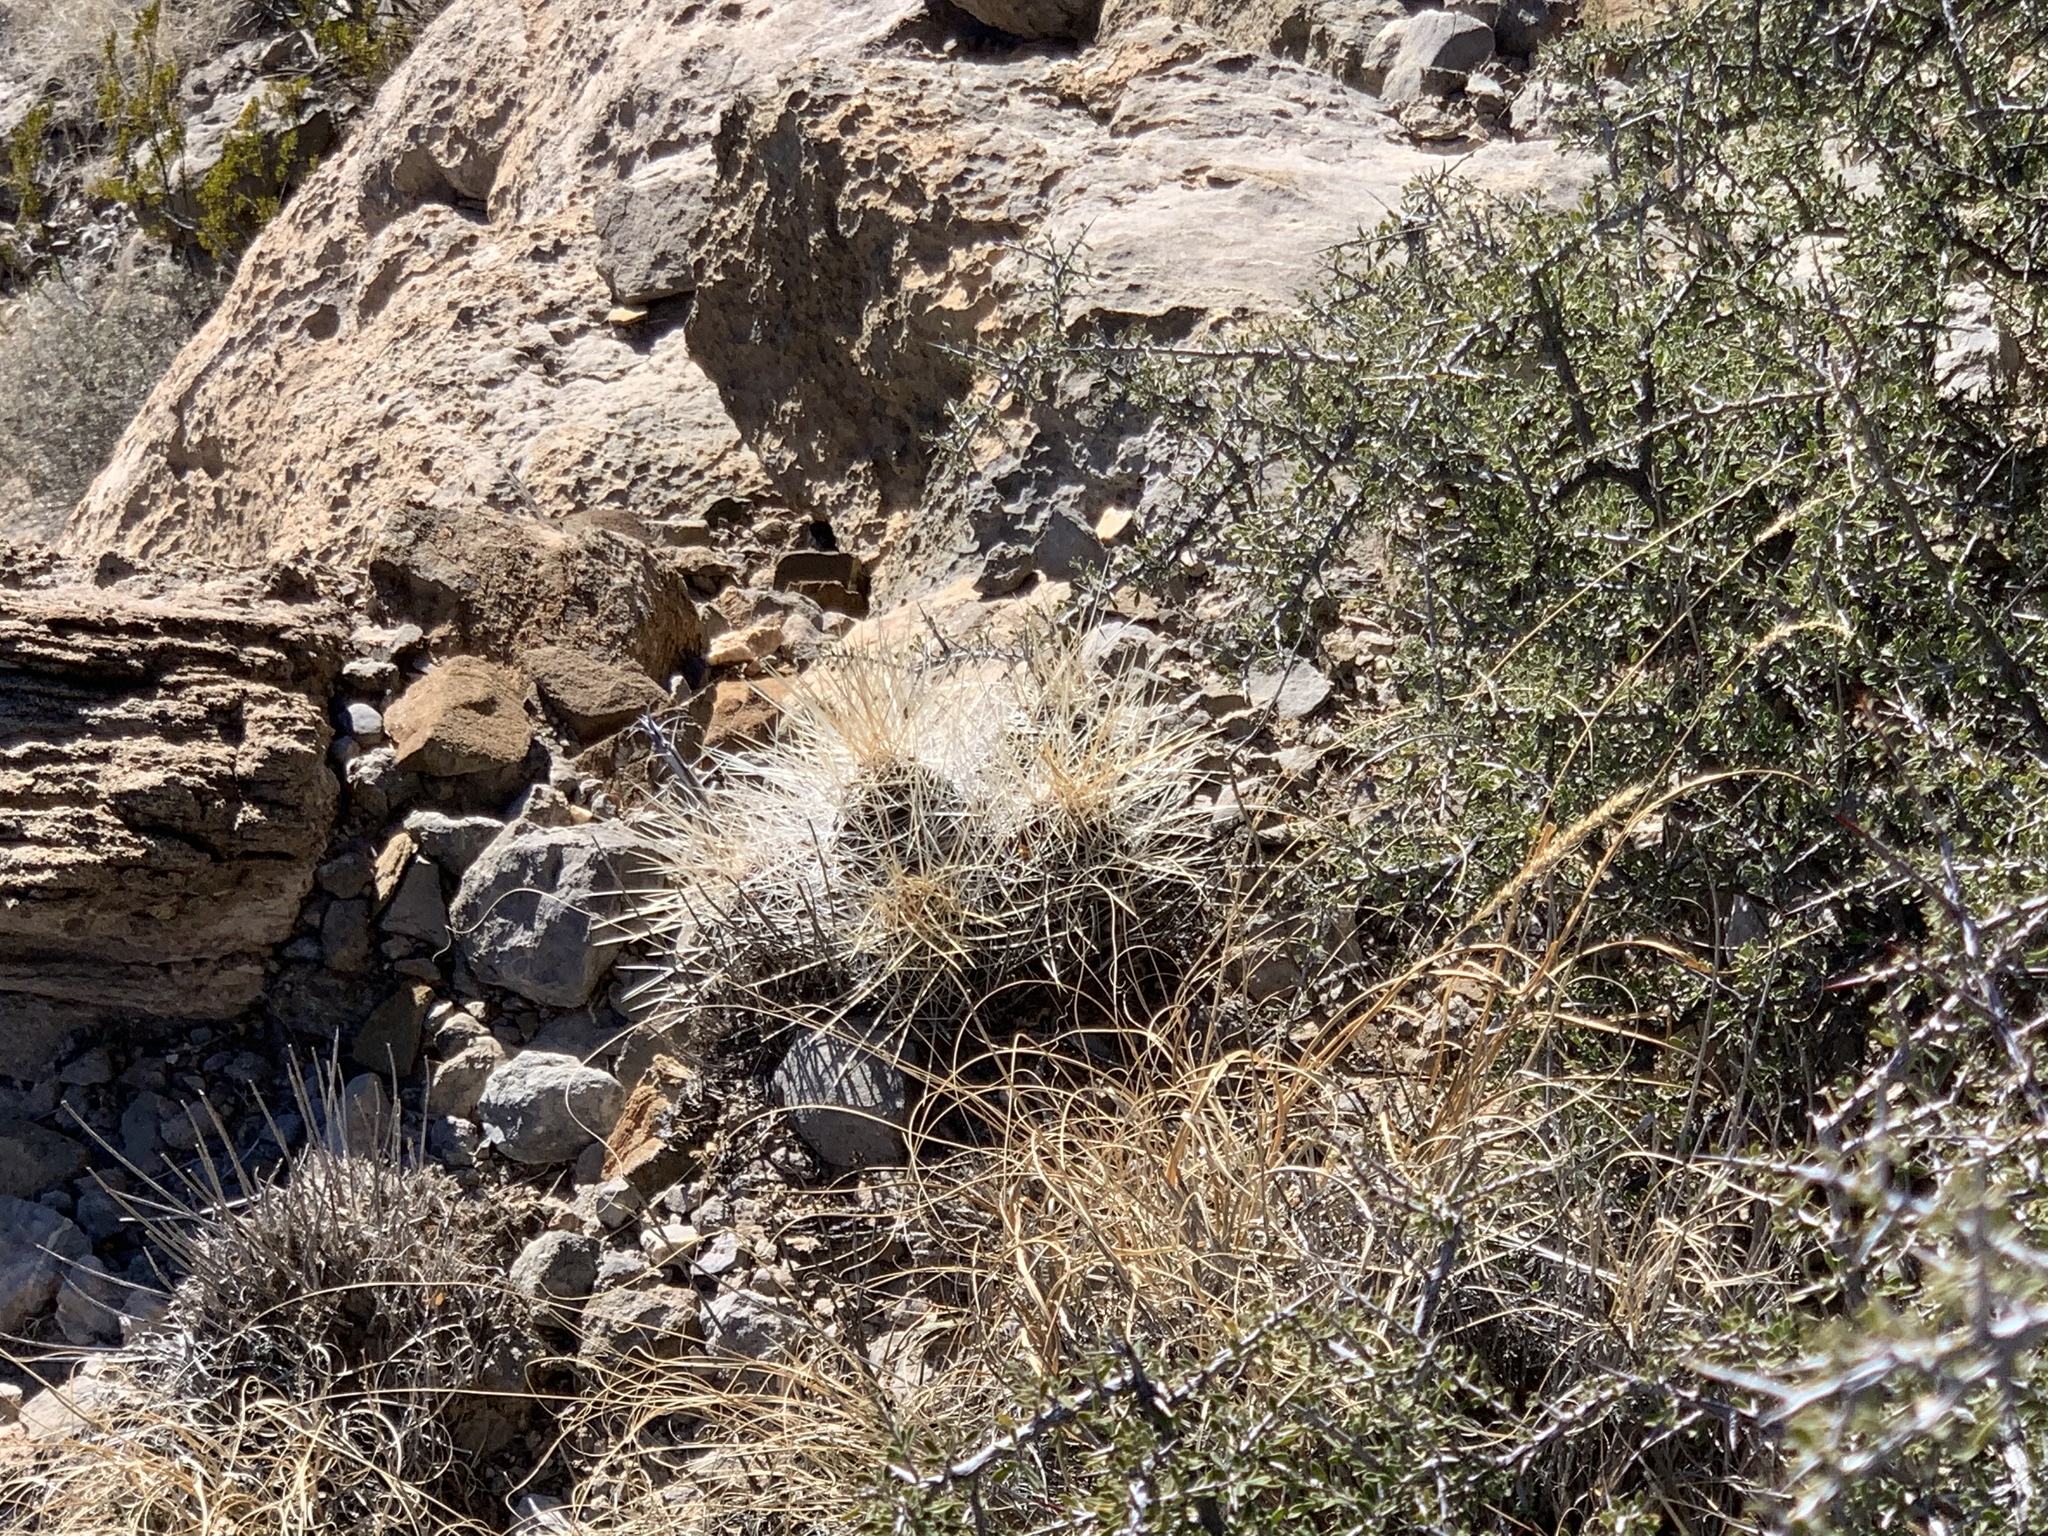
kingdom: Plantae
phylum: Tracheophyta
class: Magnoliopsida
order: Caryophyllales
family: Cactaceae
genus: Echinocereus
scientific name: Echinocereus stramineus
